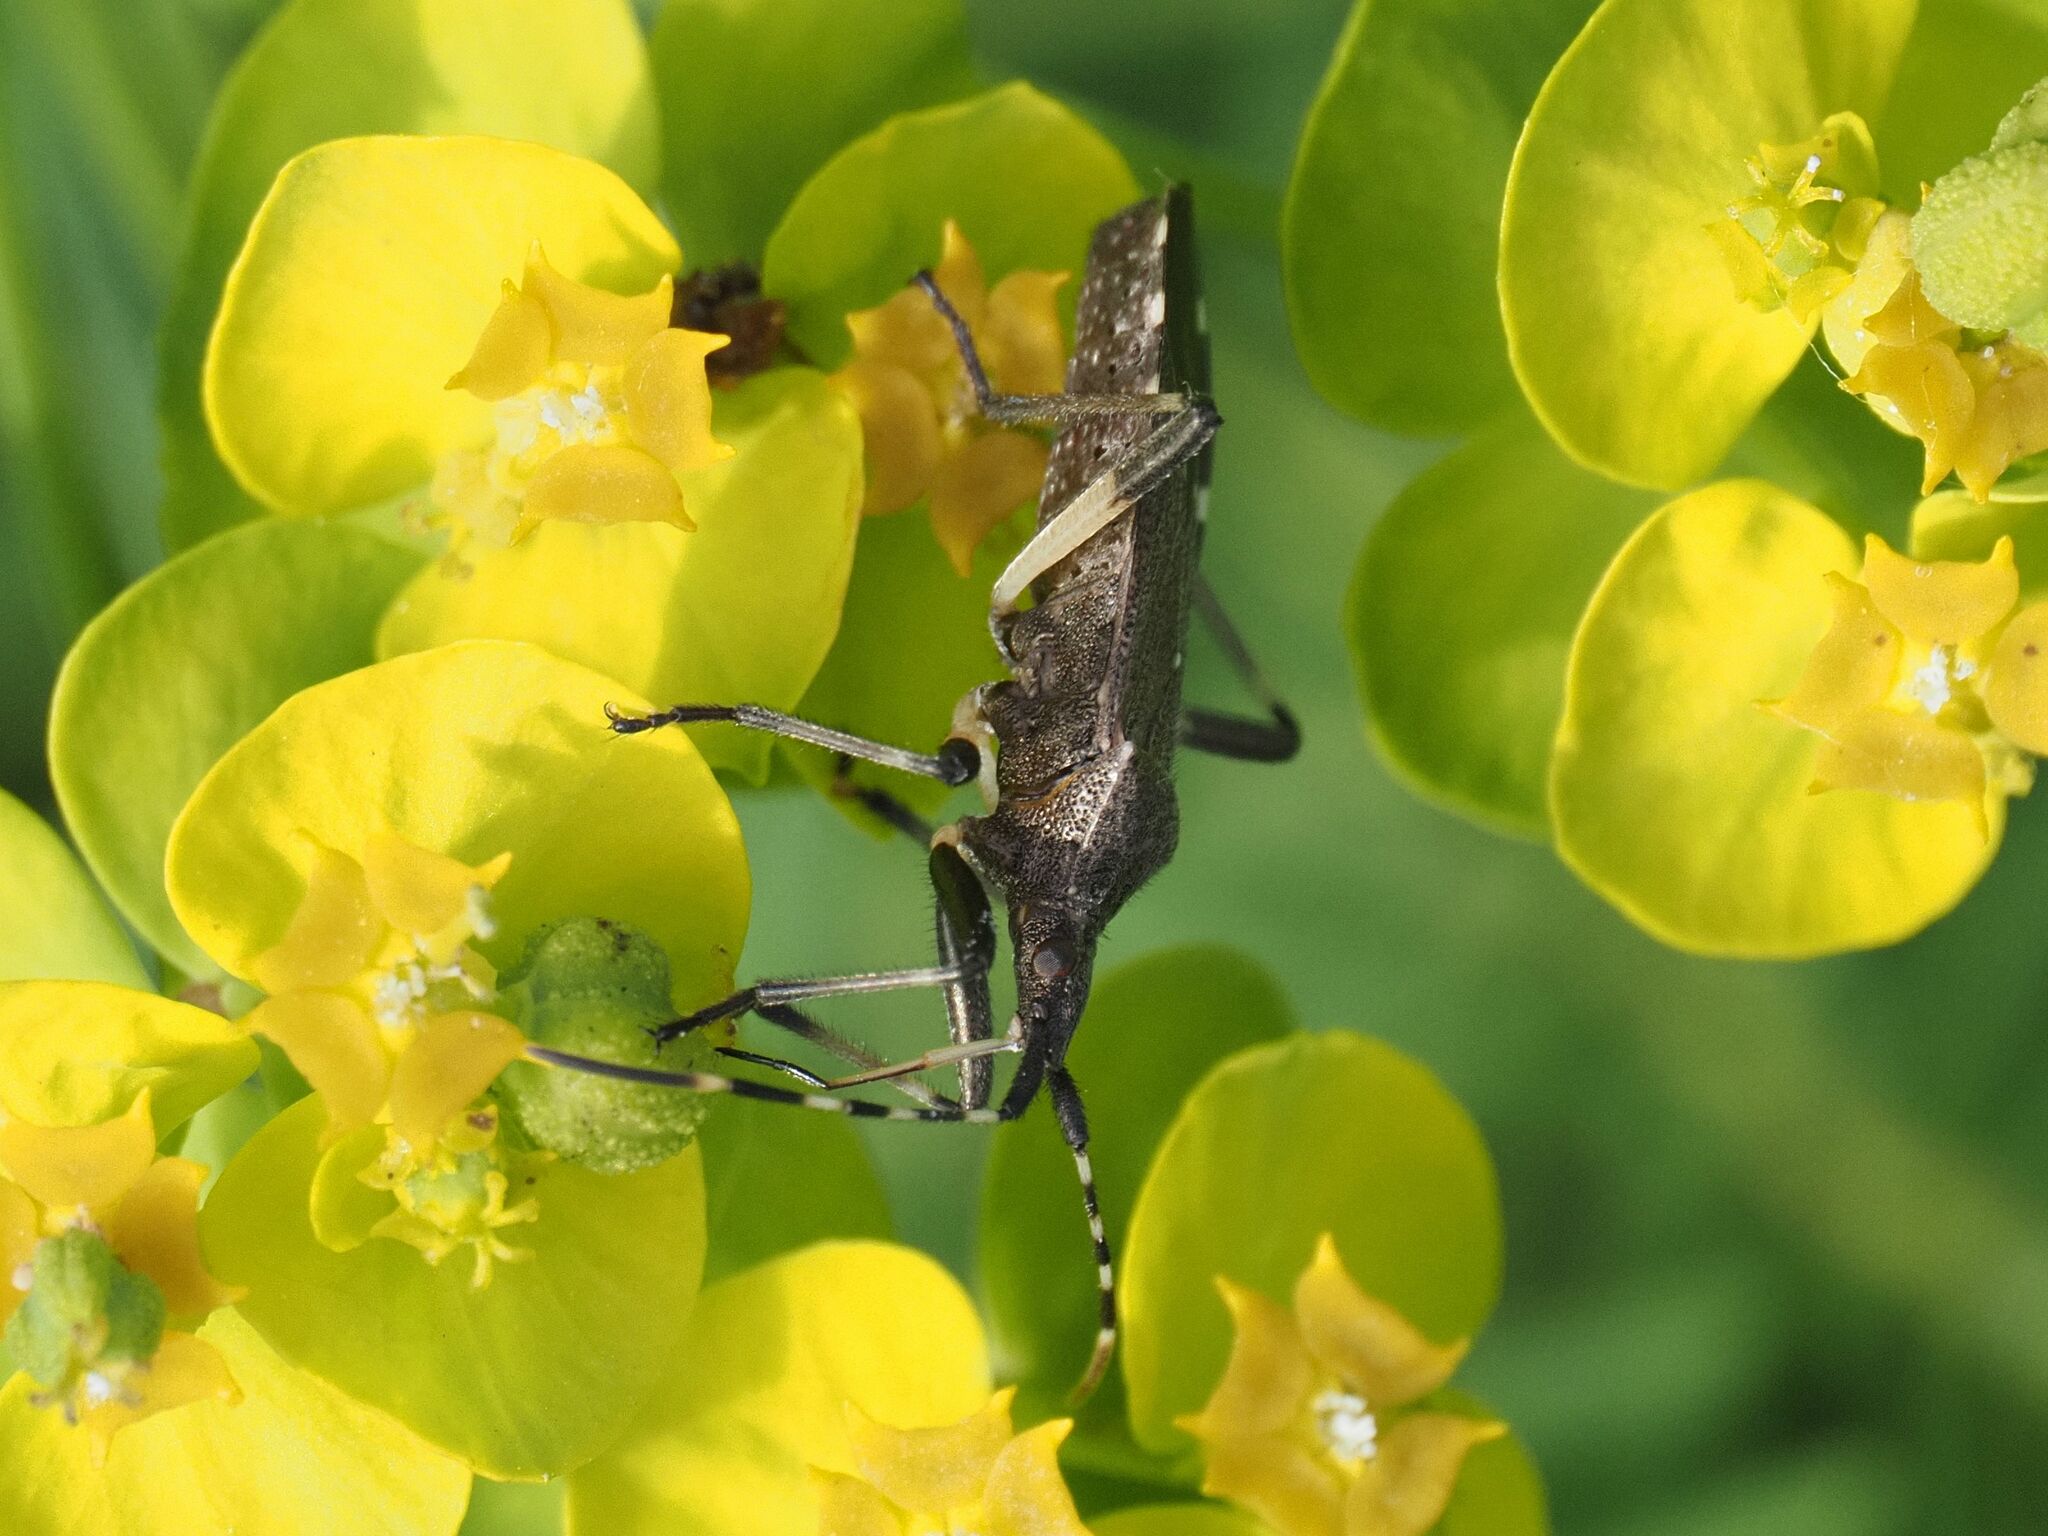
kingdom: Animalia
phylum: Arthropoda
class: Insecta
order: Hemiptera
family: Stenocephalidae
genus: Dicranocephalus
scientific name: Dicranocephalus agilis
